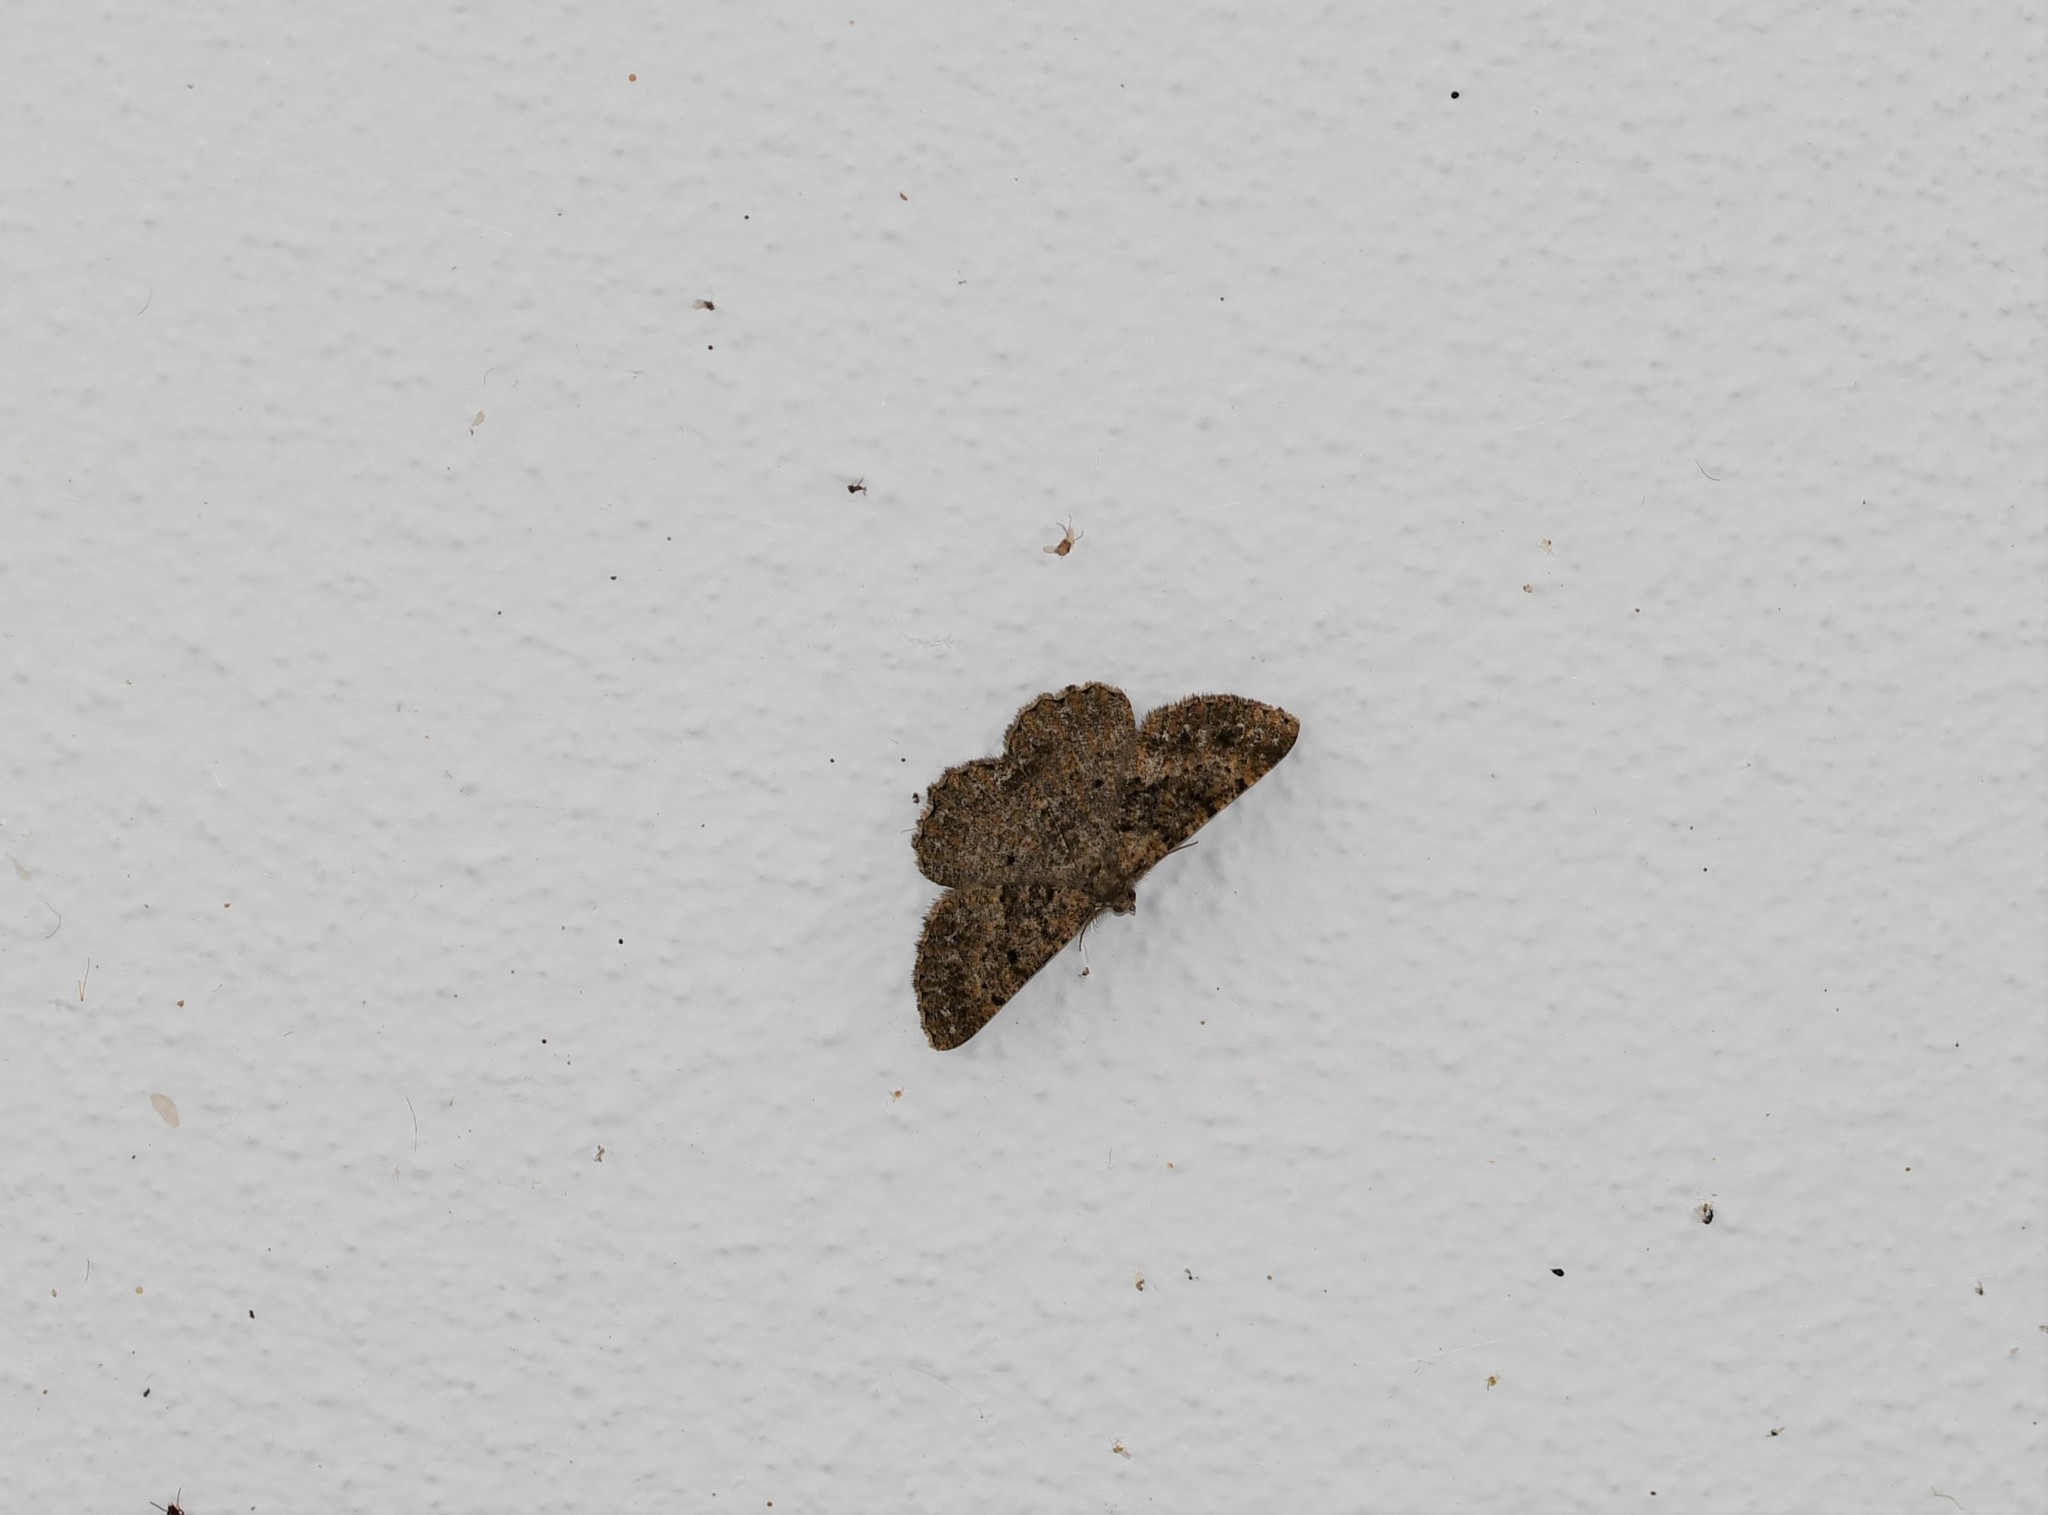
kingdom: Animalia
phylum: Arthropoda
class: Insecta
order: Lepidoptera
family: Geometridae
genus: Selidosema
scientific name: Selidosema taeniolaria
